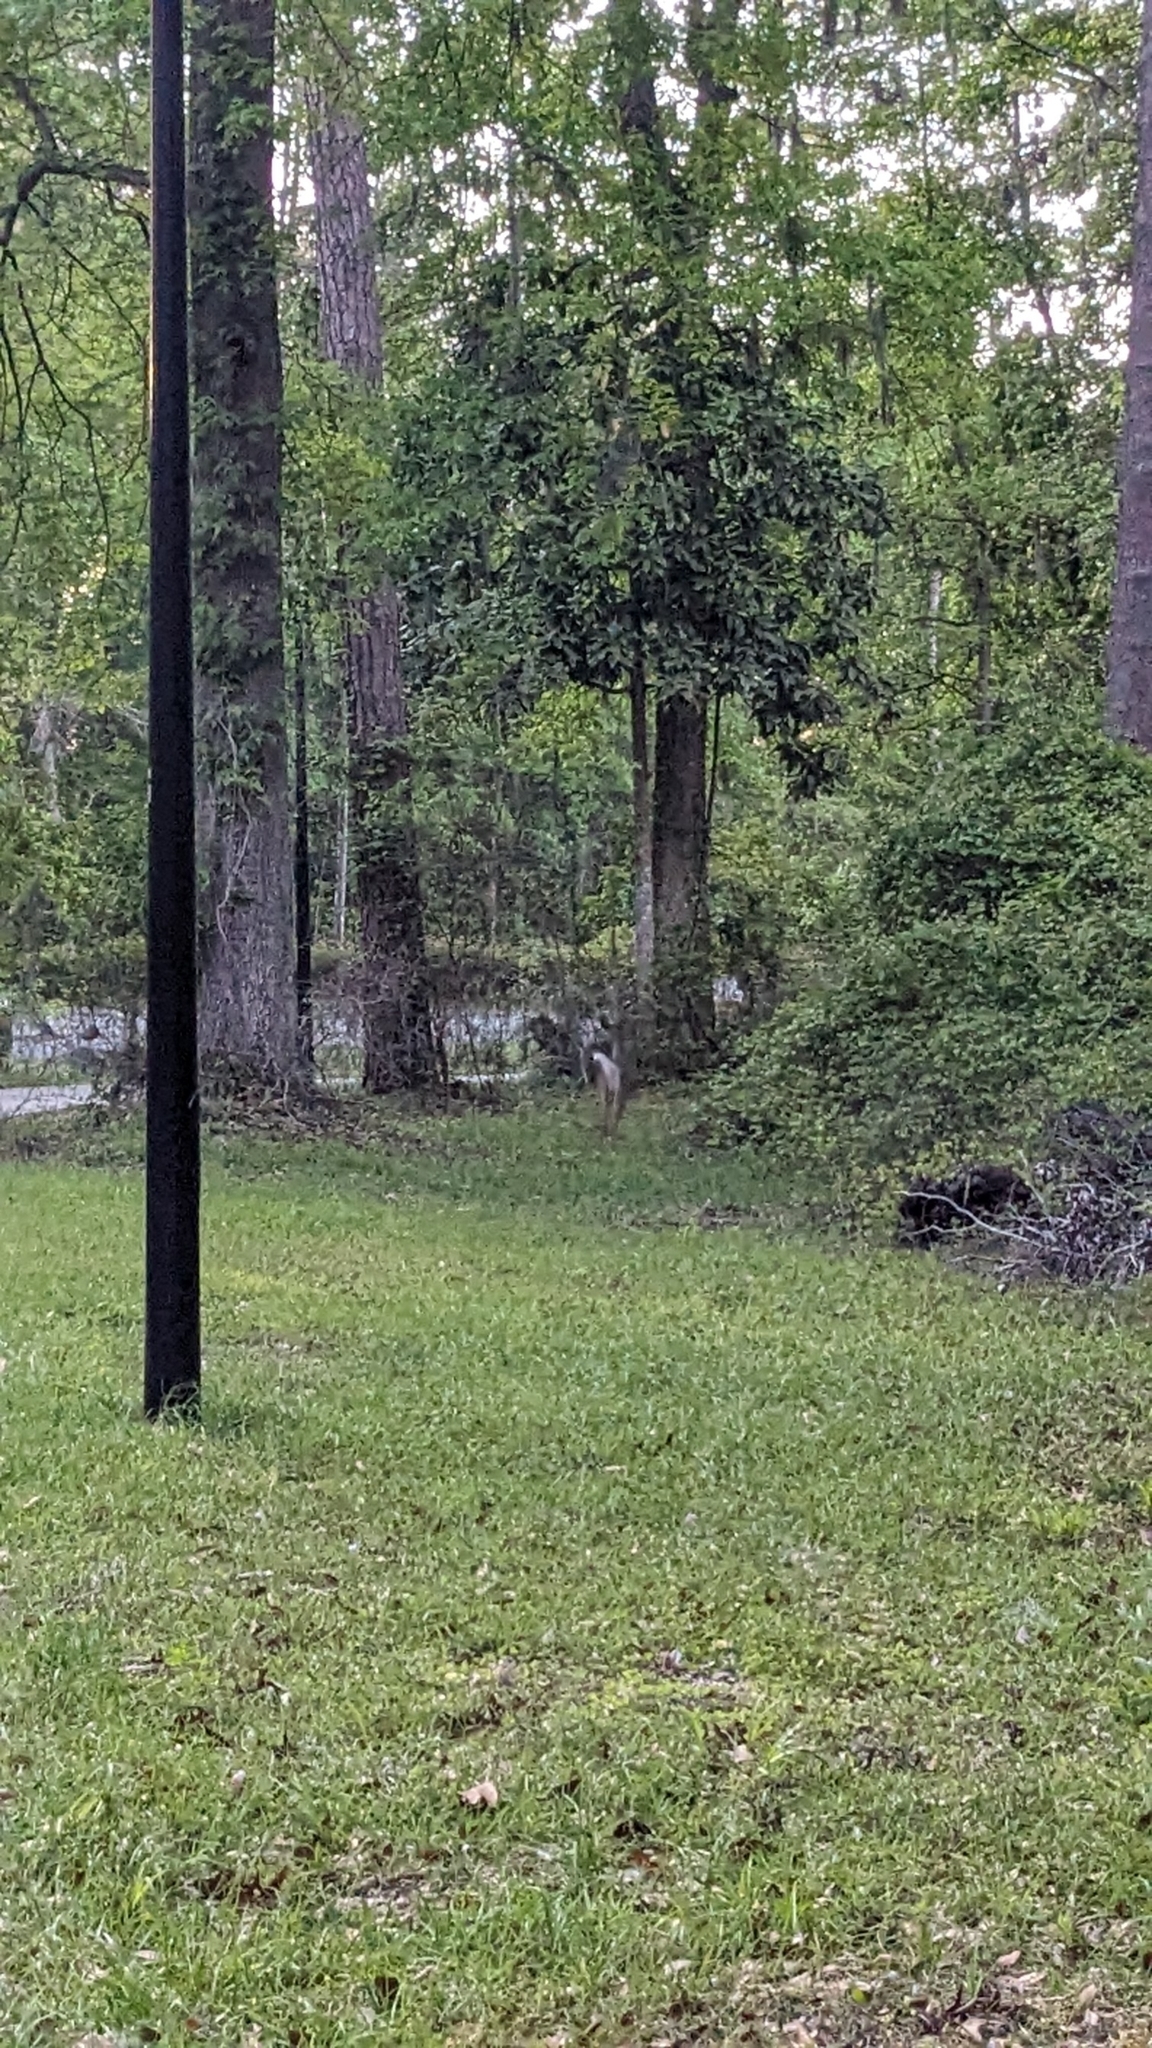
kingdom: Animalia
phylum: Chordata
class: Mammalia
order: Artiodactyla
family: Cervidae
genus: Odocoileus
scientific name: Odocoileus virginianus
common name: White-tailed deer
